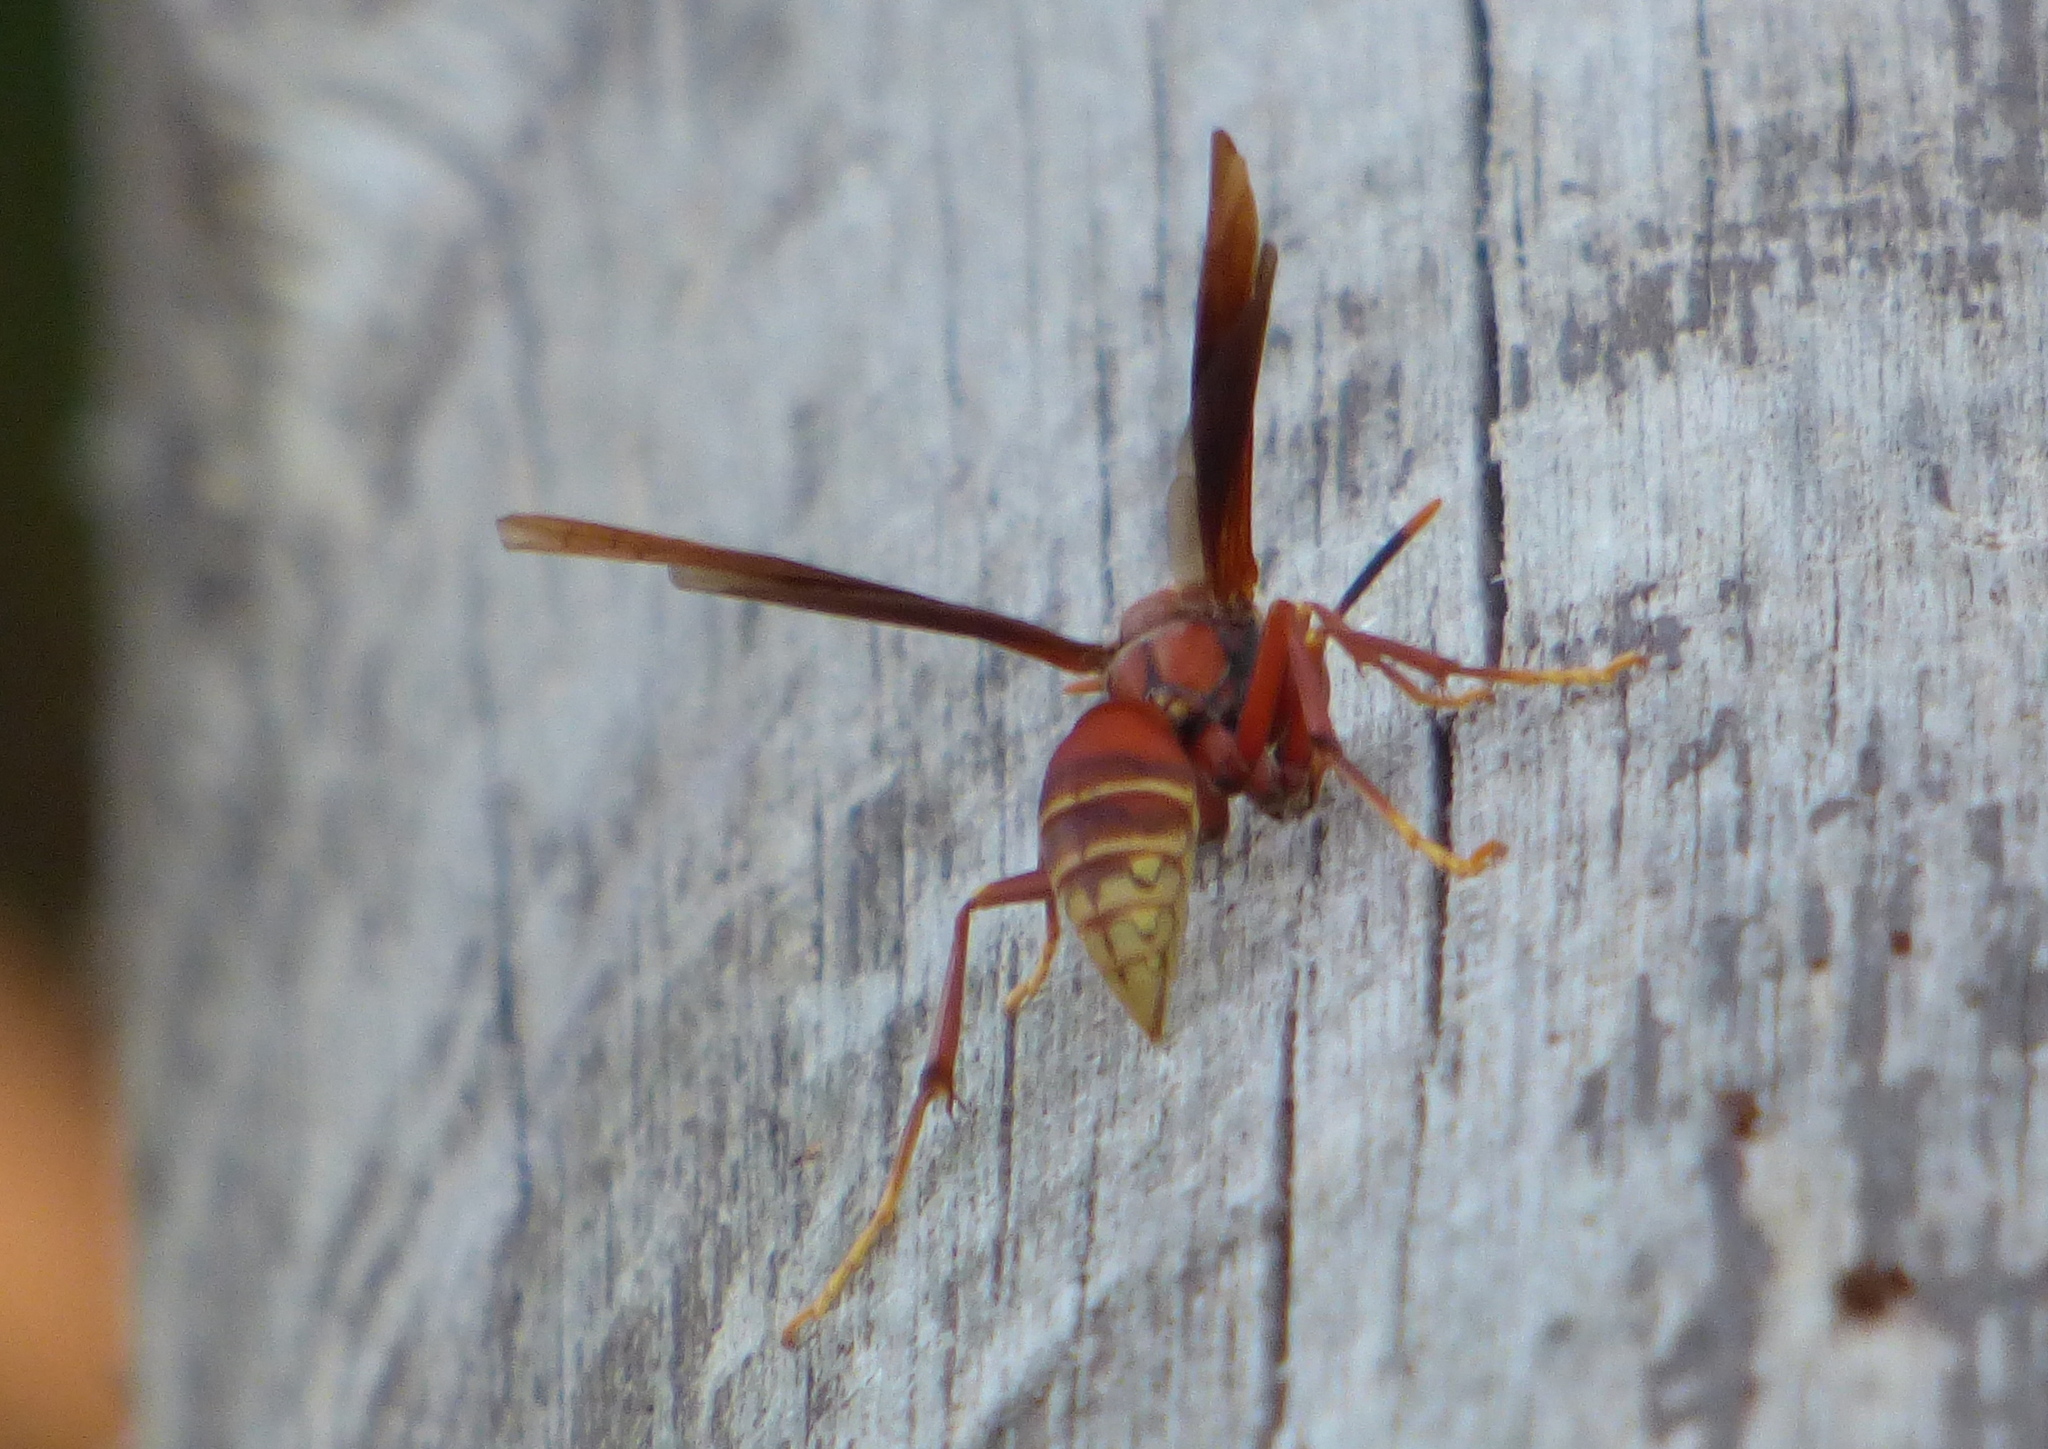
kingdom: Animalia
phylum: Arthropoda
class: Insecta
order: Hymenoptera
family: Eumenidae
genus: Polistes
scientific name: Polistes cavapyta
